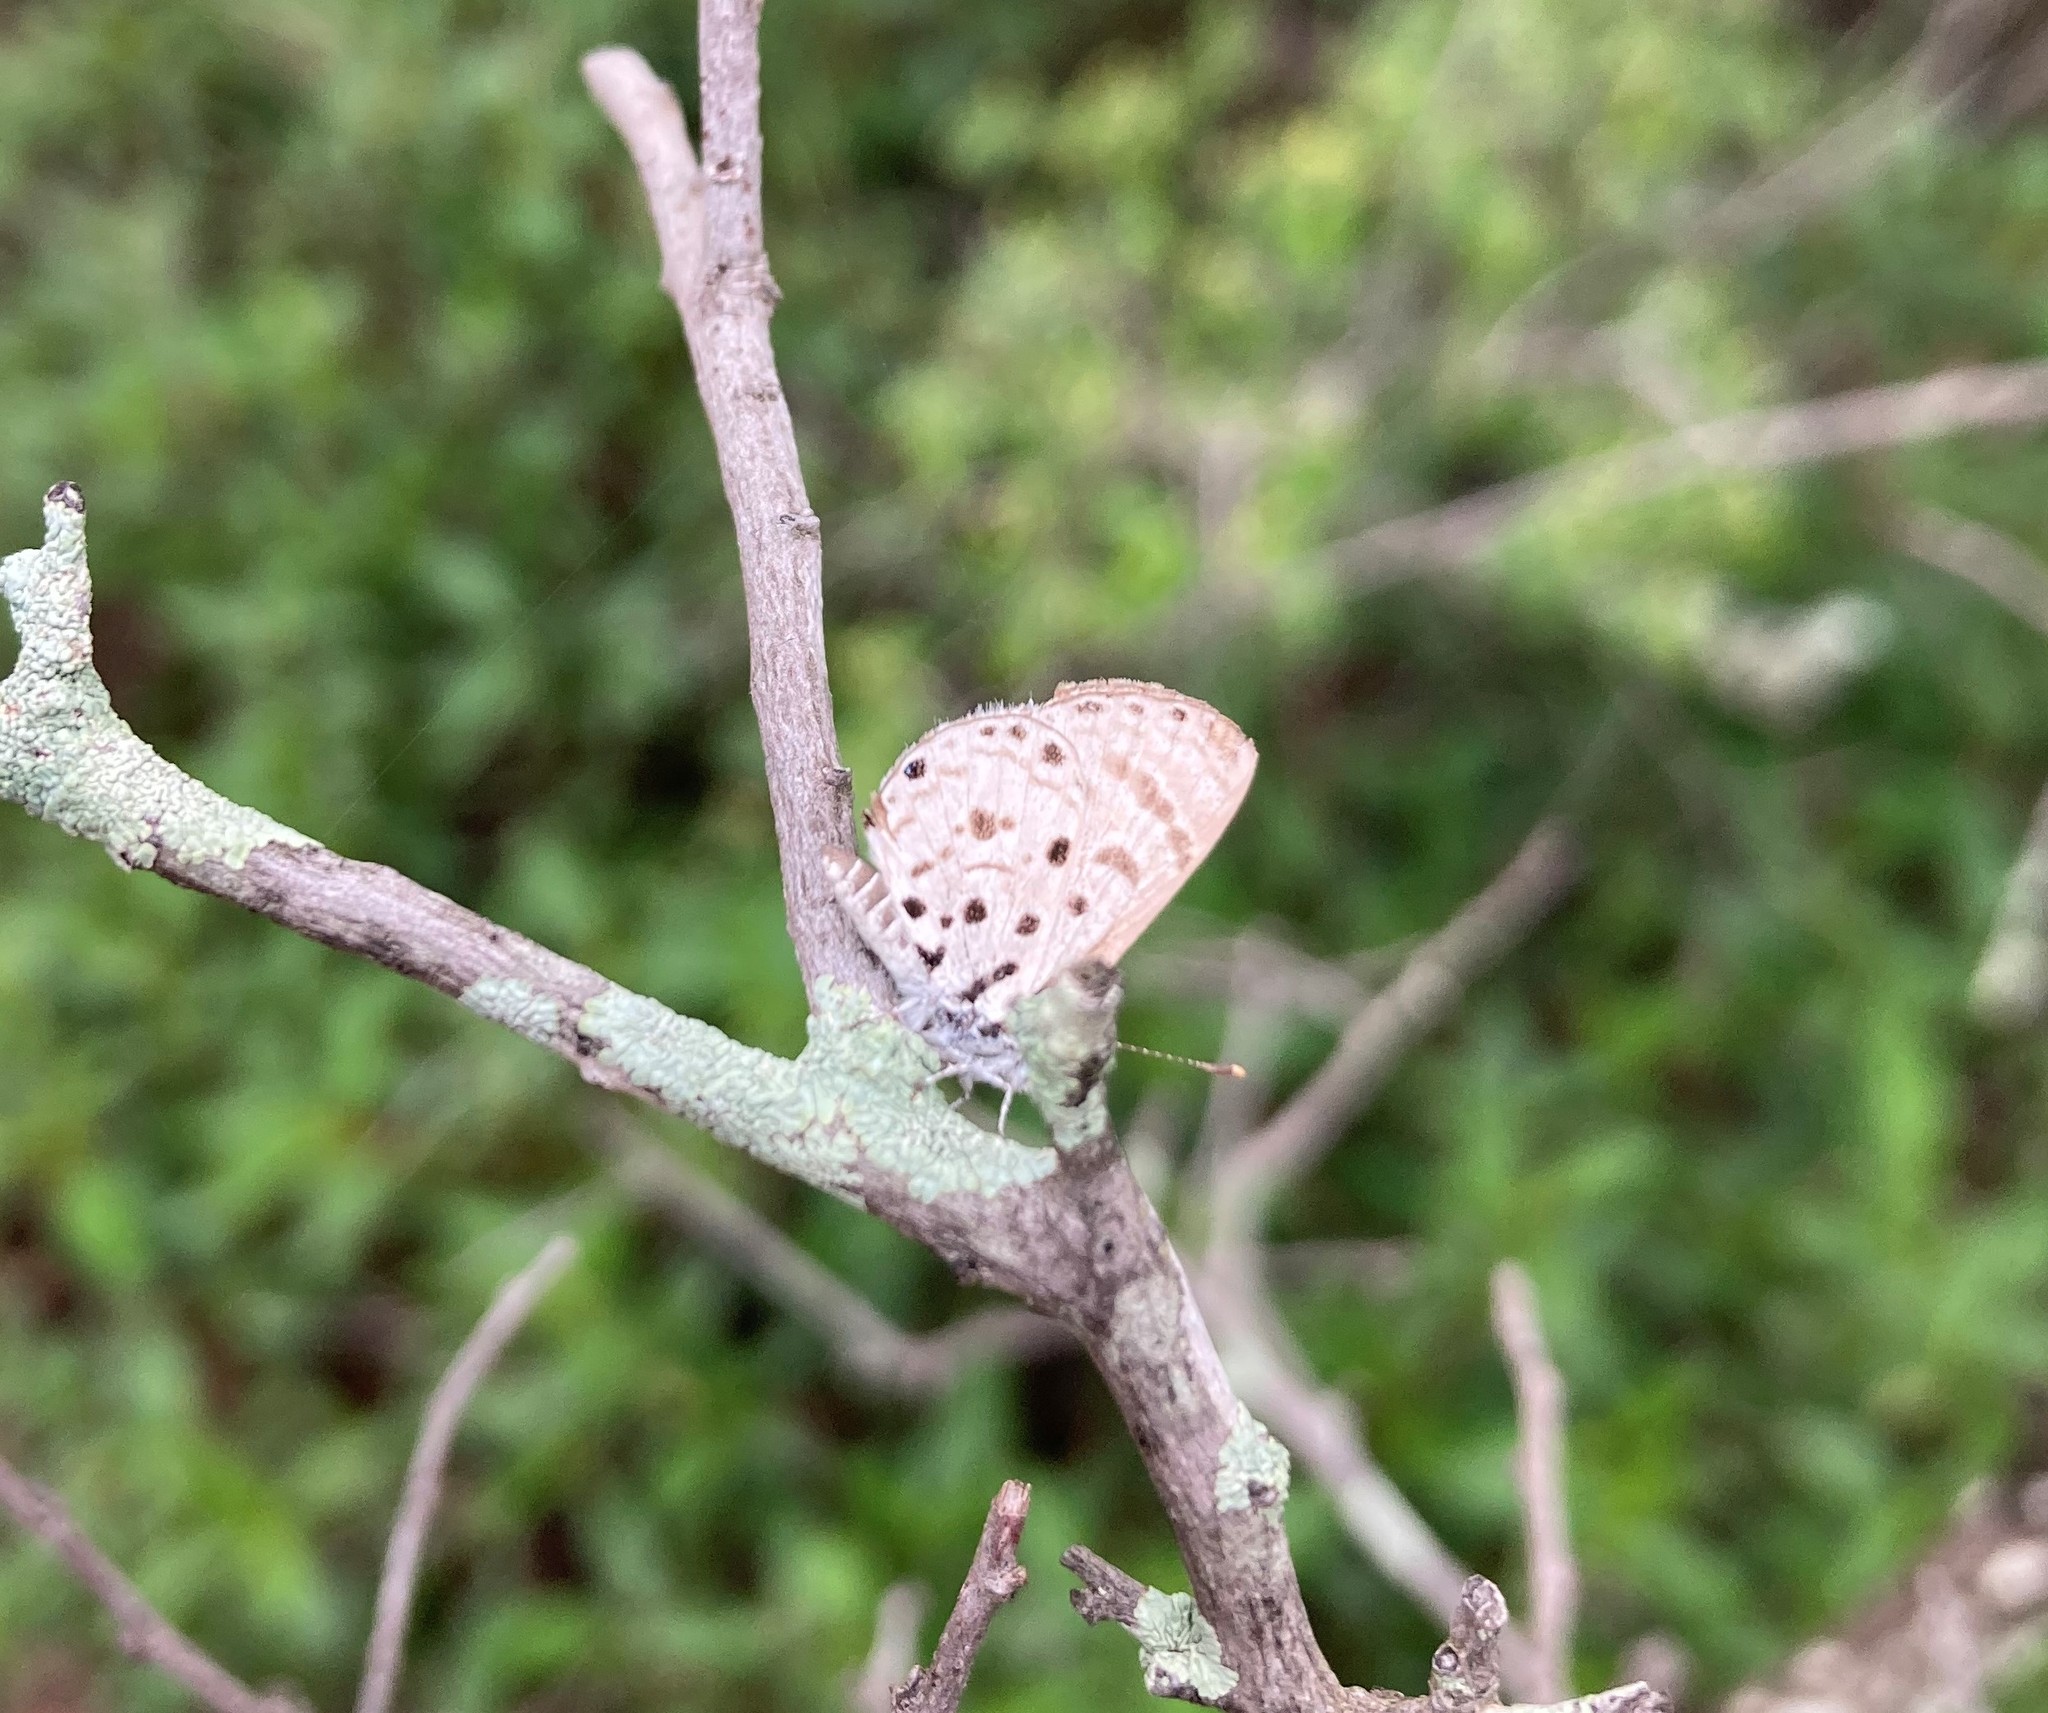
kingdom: Animalia
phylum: Arthropoda
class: Insecta
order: Lepidoptera
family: Lycaenidae
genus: Azanus
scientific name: Azanus moriqua
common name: Thorn-tree babul blue
